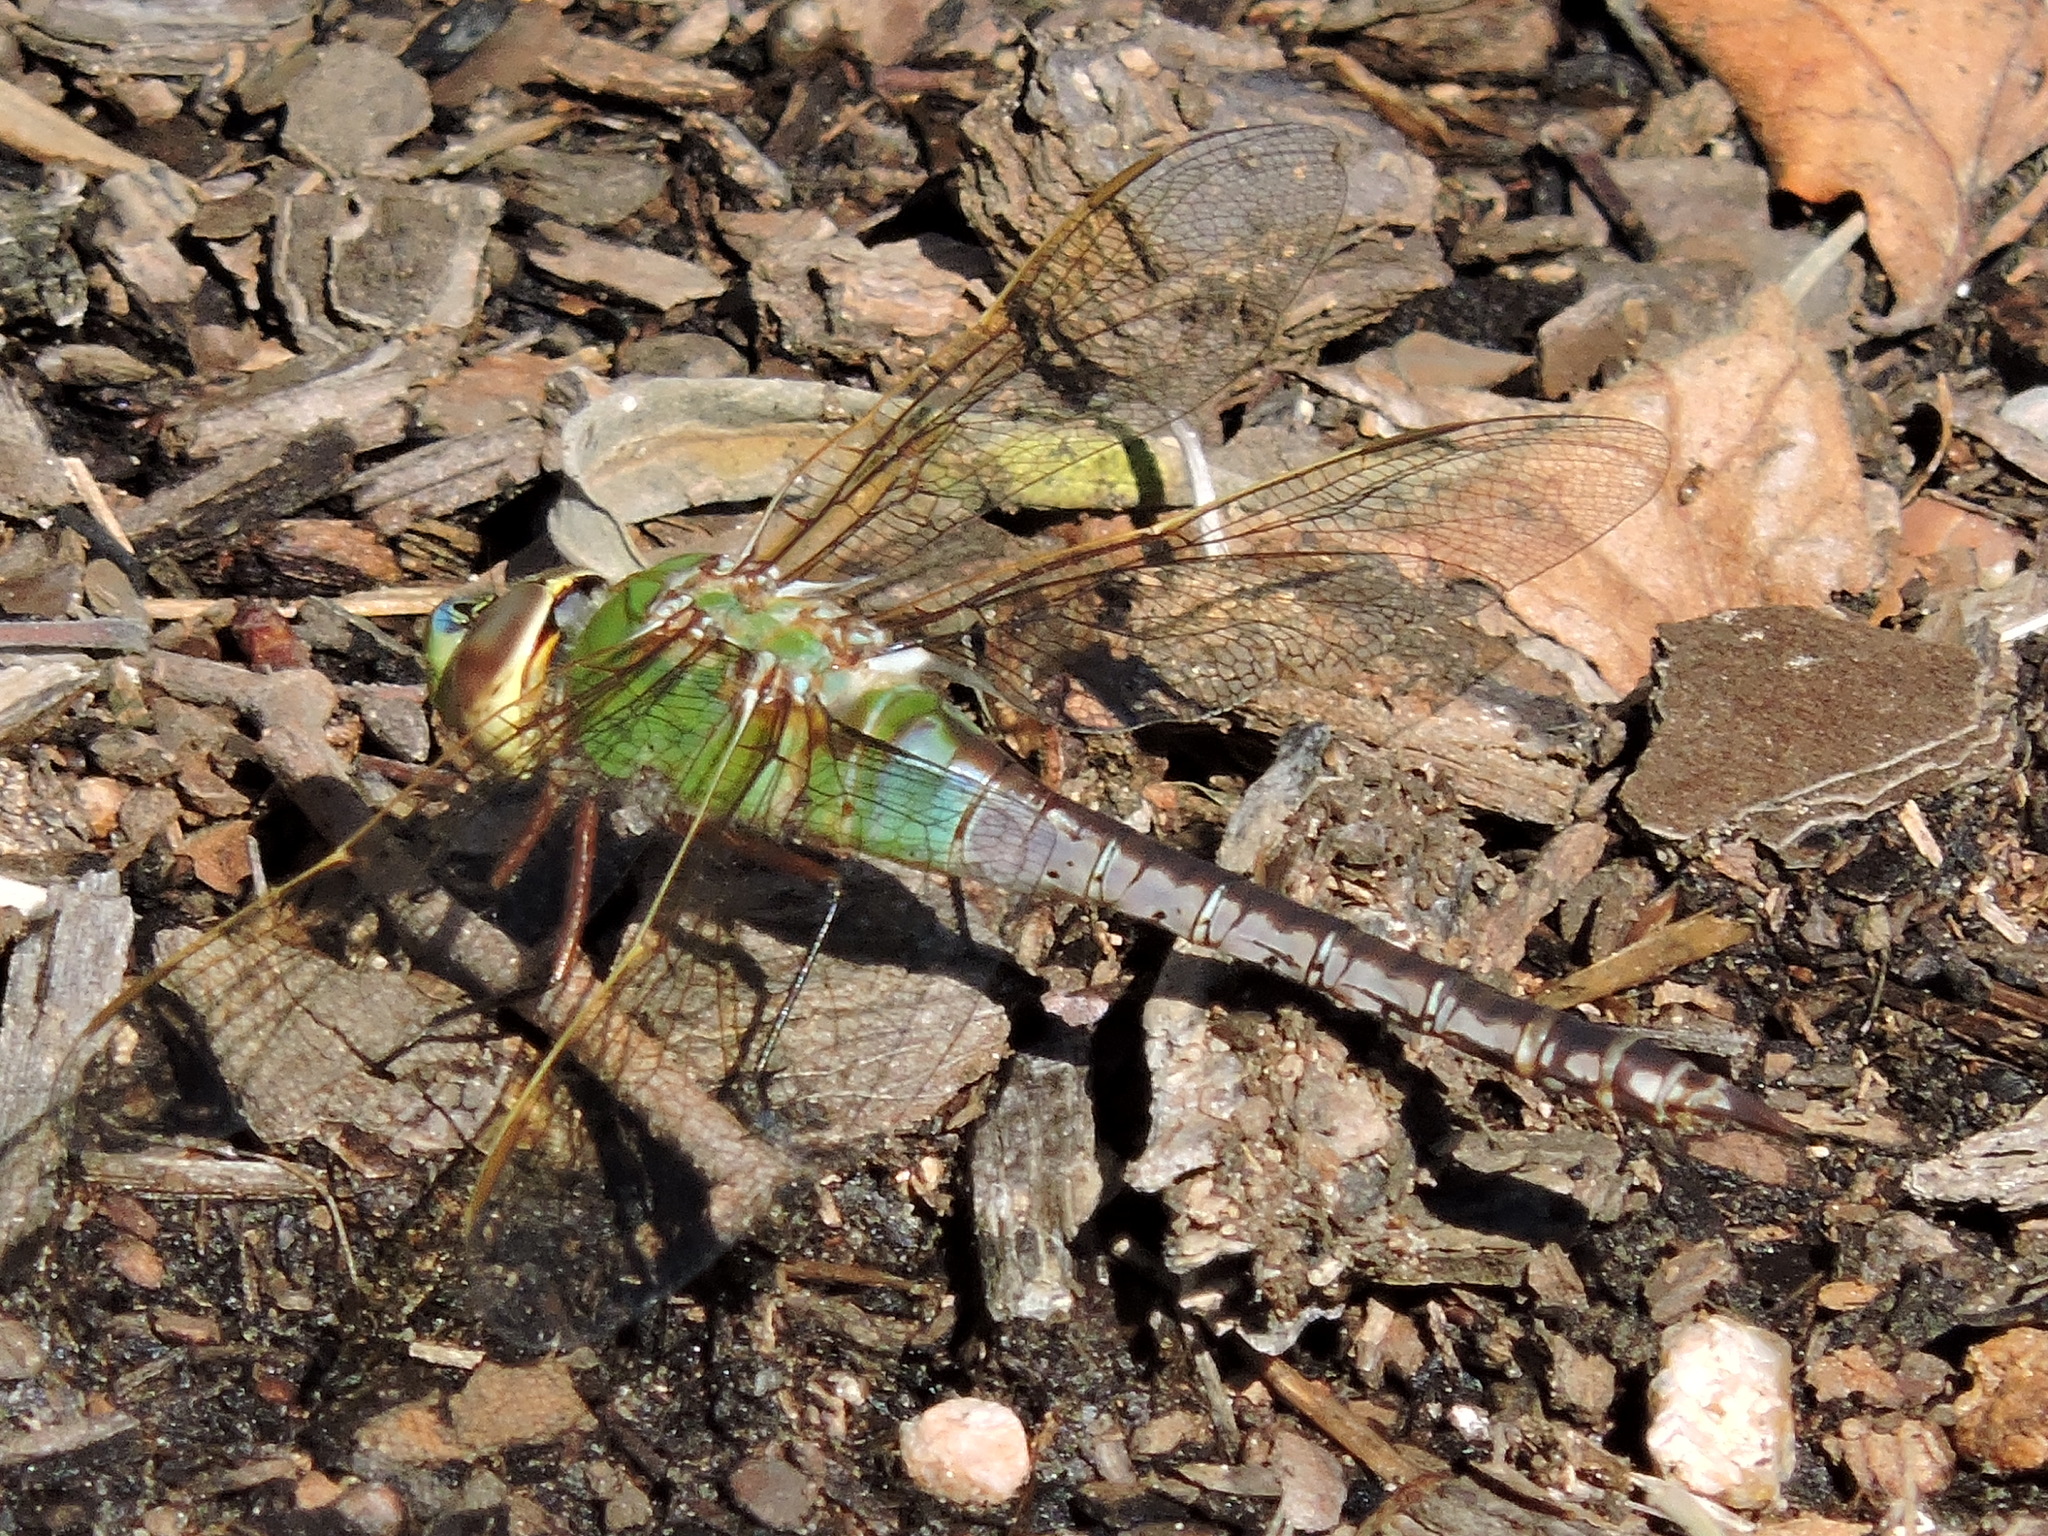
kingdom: Animalia
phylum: Arthropoda
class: Insecta
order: Odonata
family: Aeshnidae
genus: Anax
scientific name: Anax junius
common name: Common green darner
